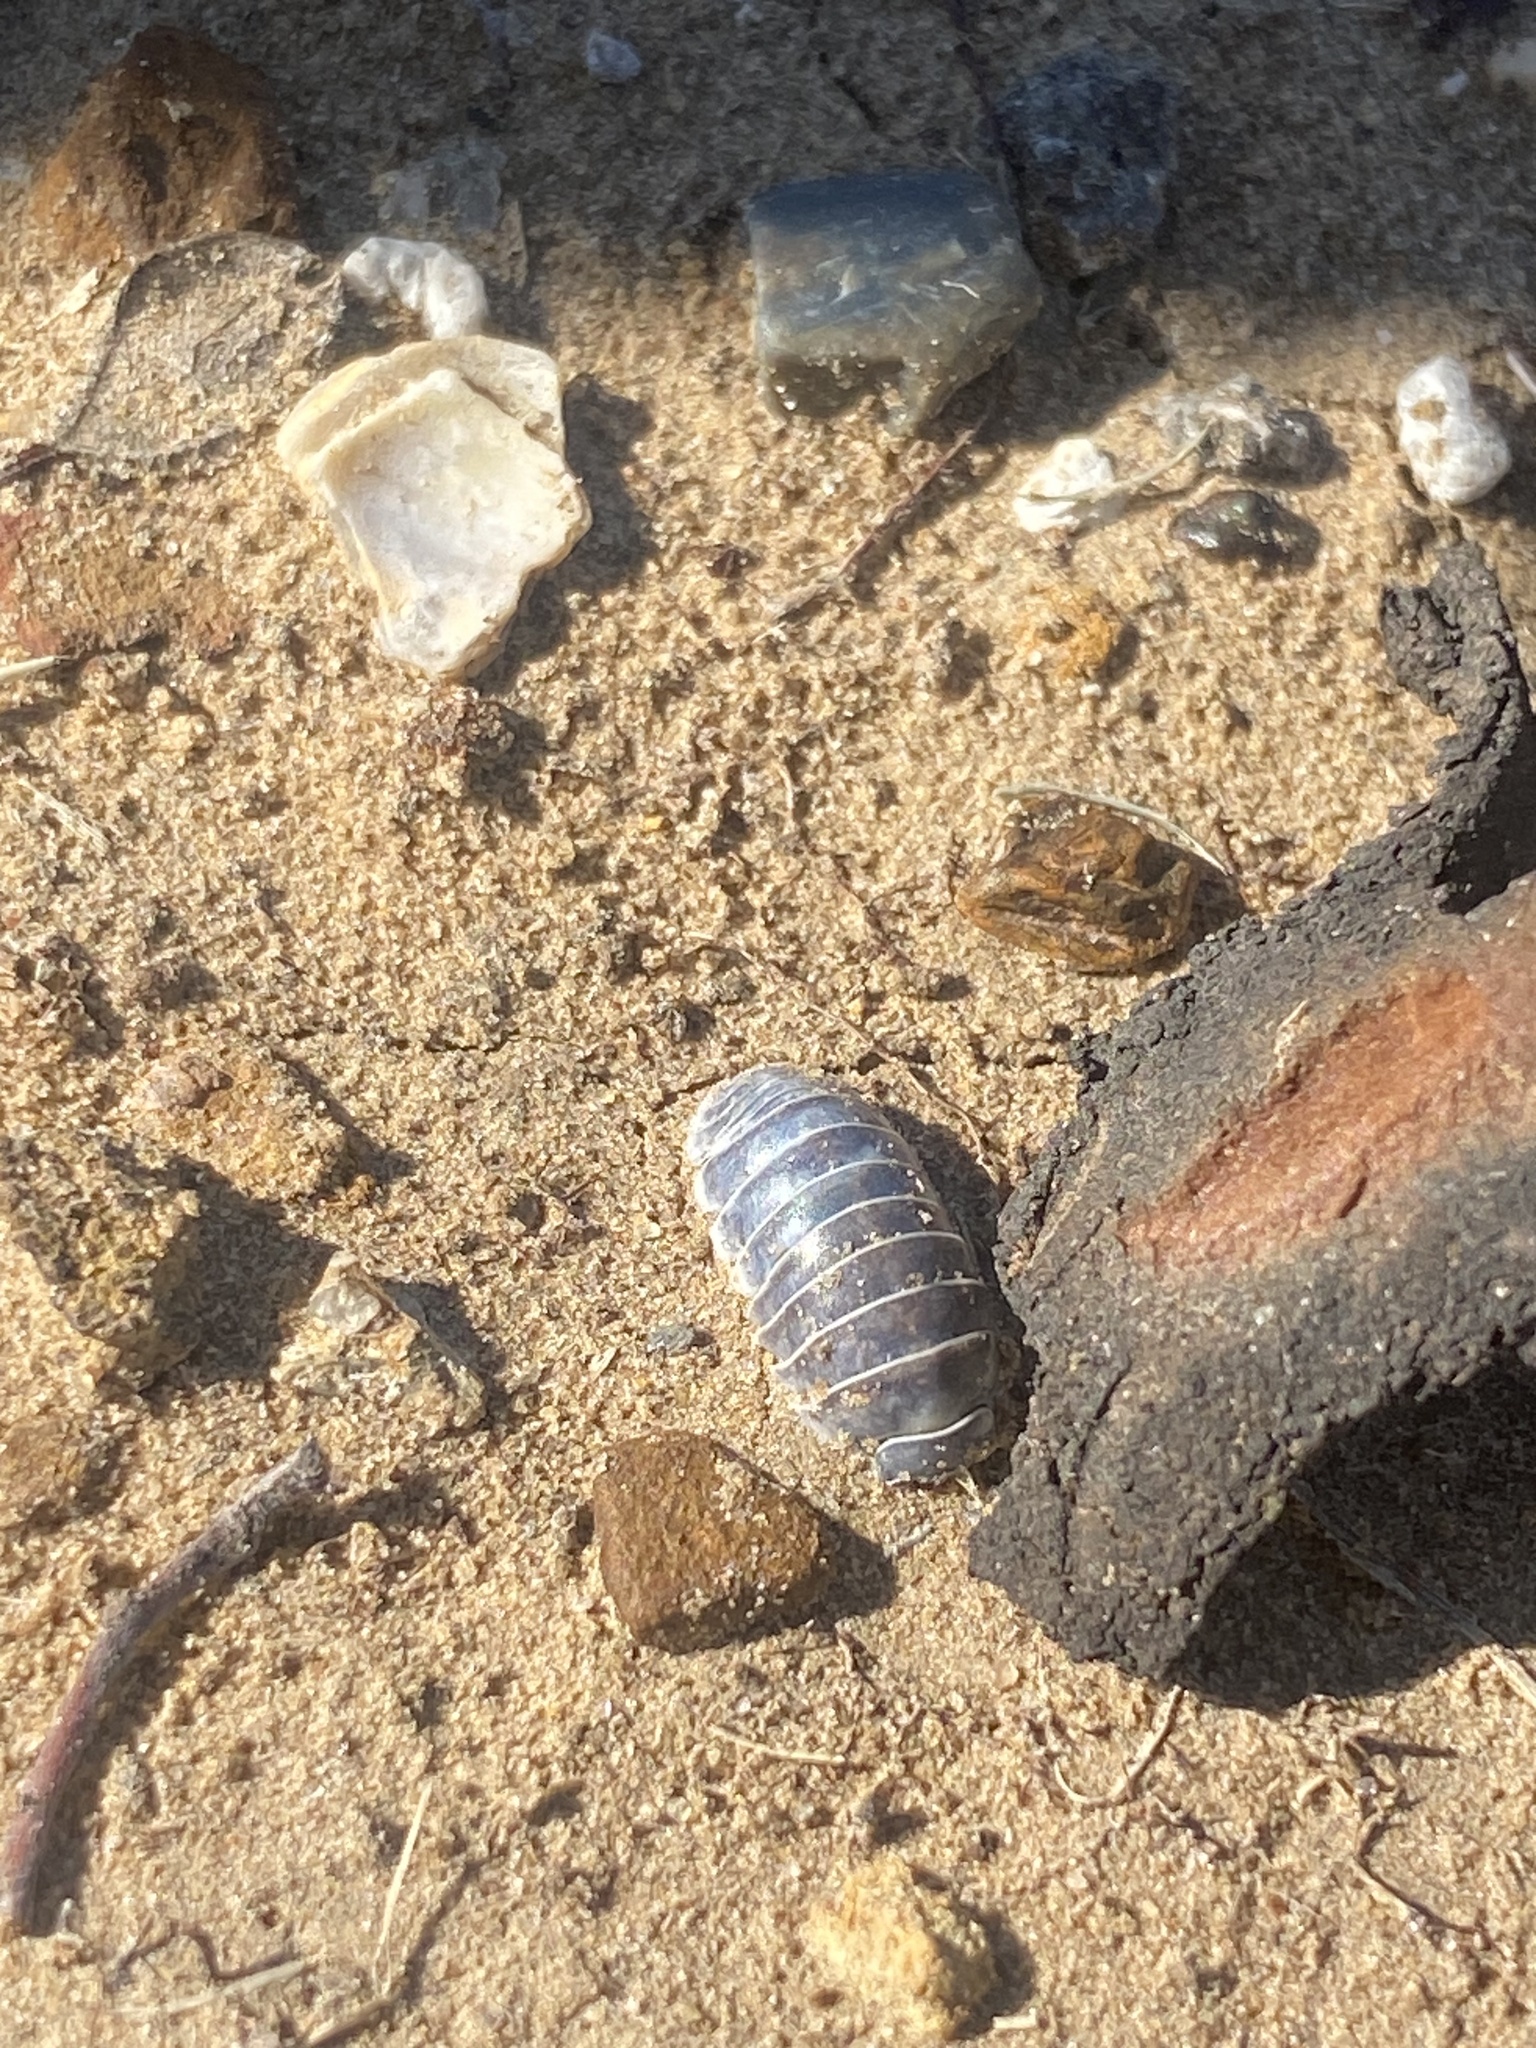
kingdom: Animalia
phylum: Arthropoda
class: Malacostraca
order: Isopoda
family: Armadillidiidae
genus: Armadillidium
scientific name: Armadillidium vulgare
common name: Common pill woodlouse
